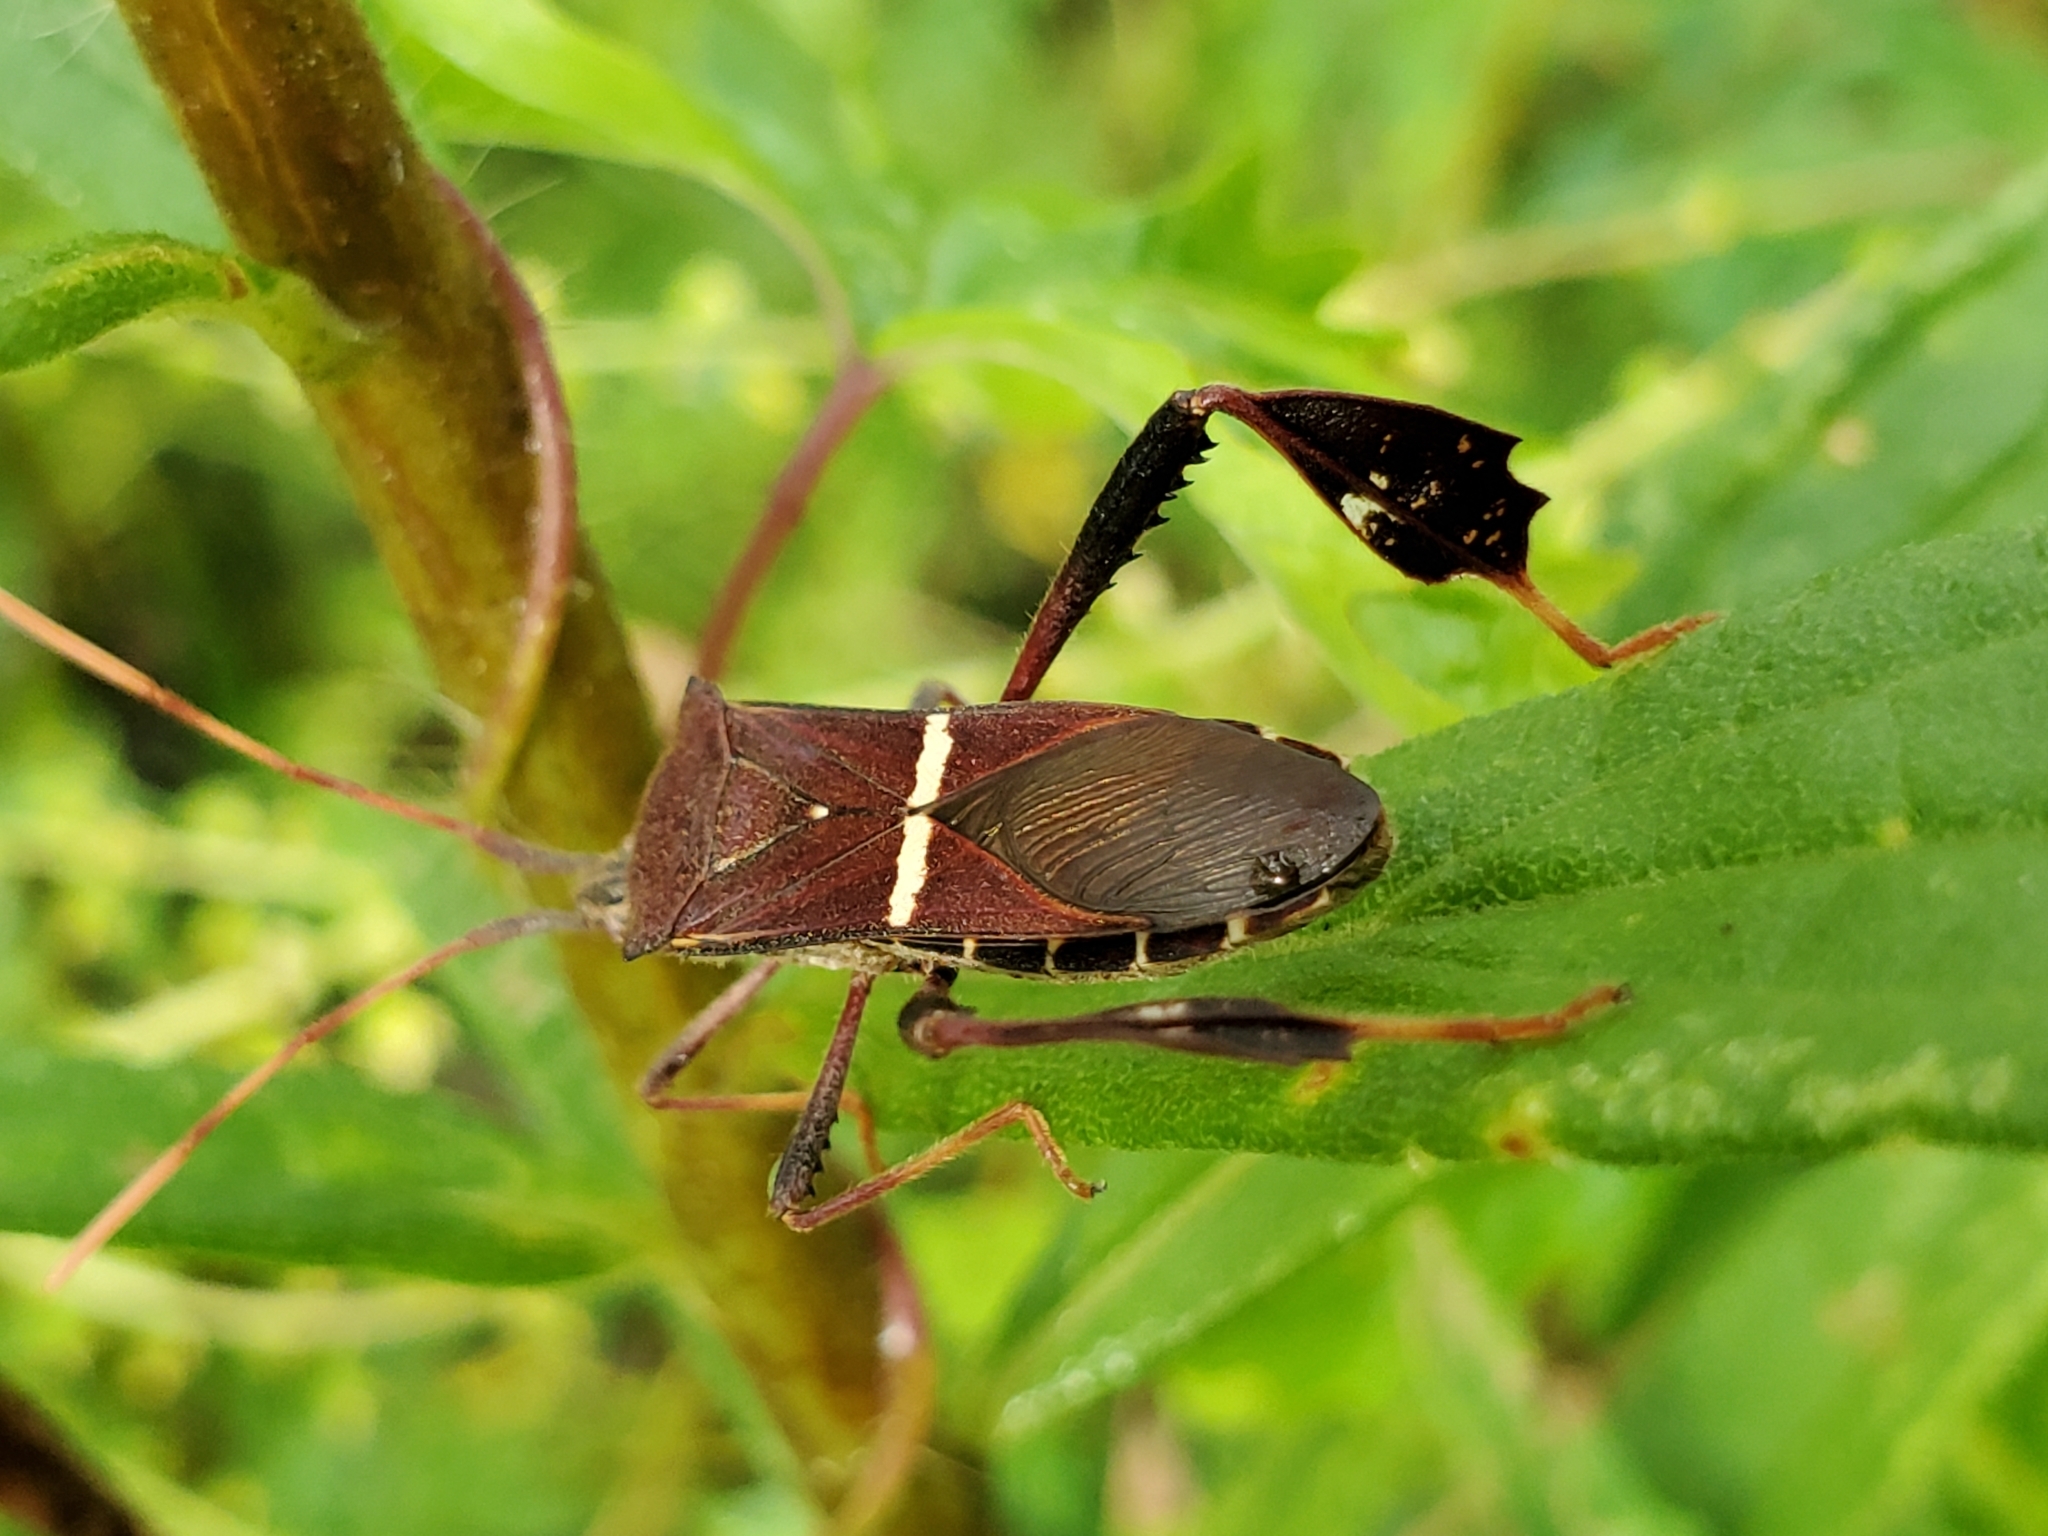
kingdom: Animalia
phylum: Arthropoda
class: Insecta
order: Hemiptera
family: Coreidae
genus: Leptoglossus
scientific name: Leptoglossus phyllopus
